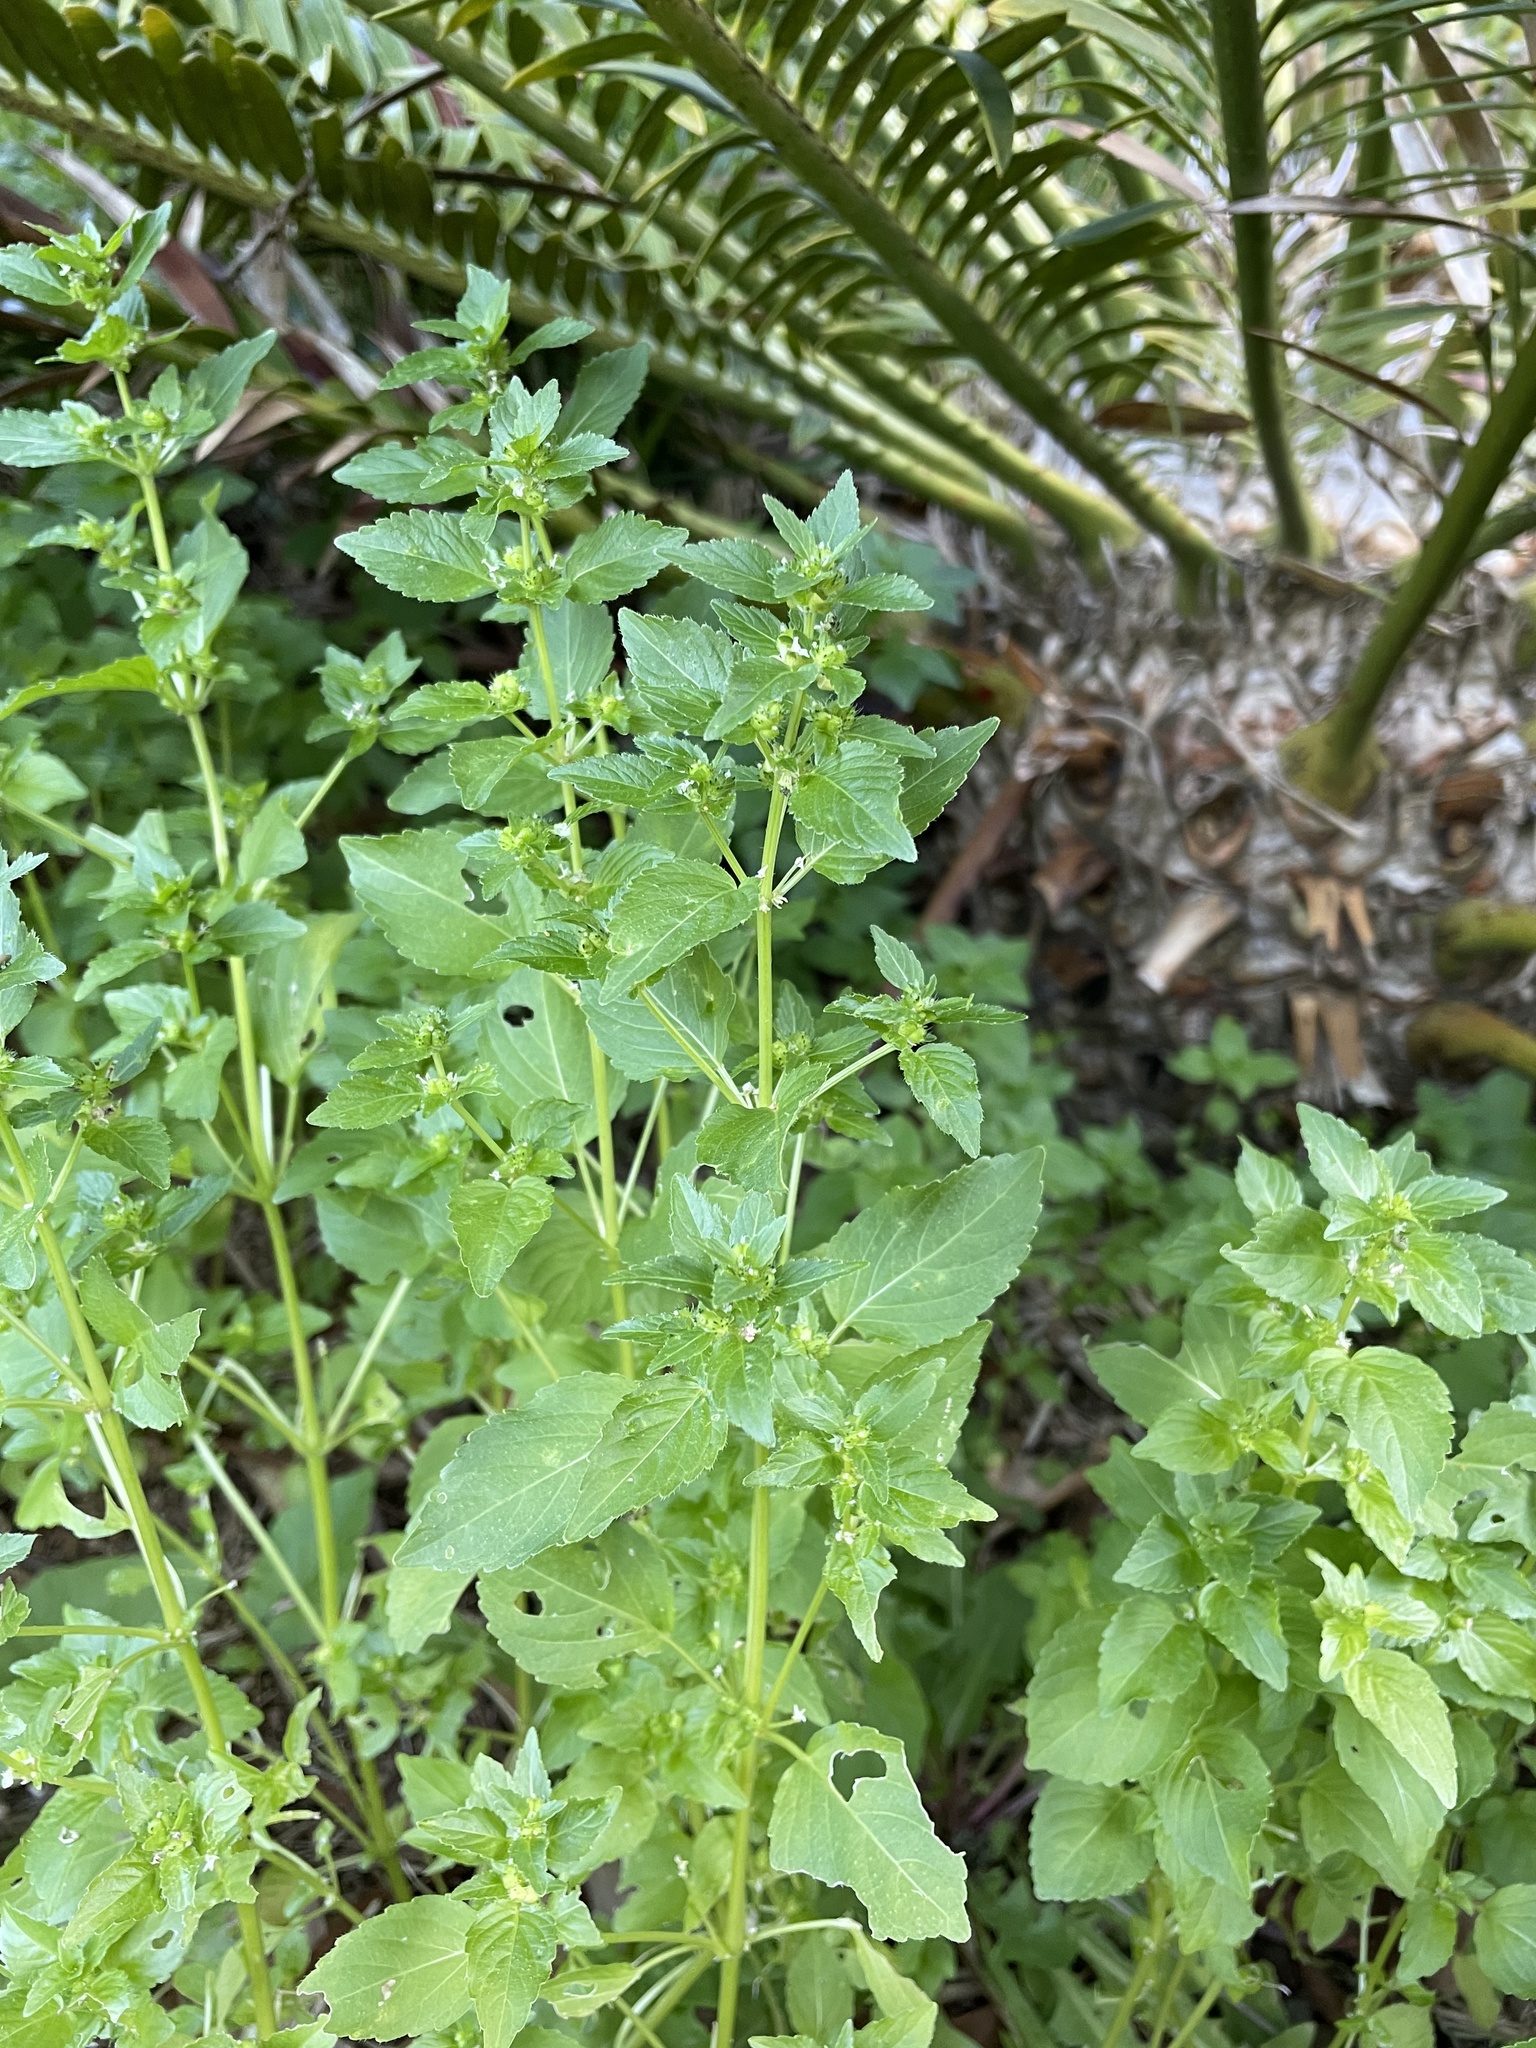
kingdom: Plantae
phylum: Tracheophyta
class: Magnoliopsida
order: Malpighiales
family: Euphorbiaceae
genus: Mercurialis
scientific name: Mercurialis annua
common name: Annual mercury
